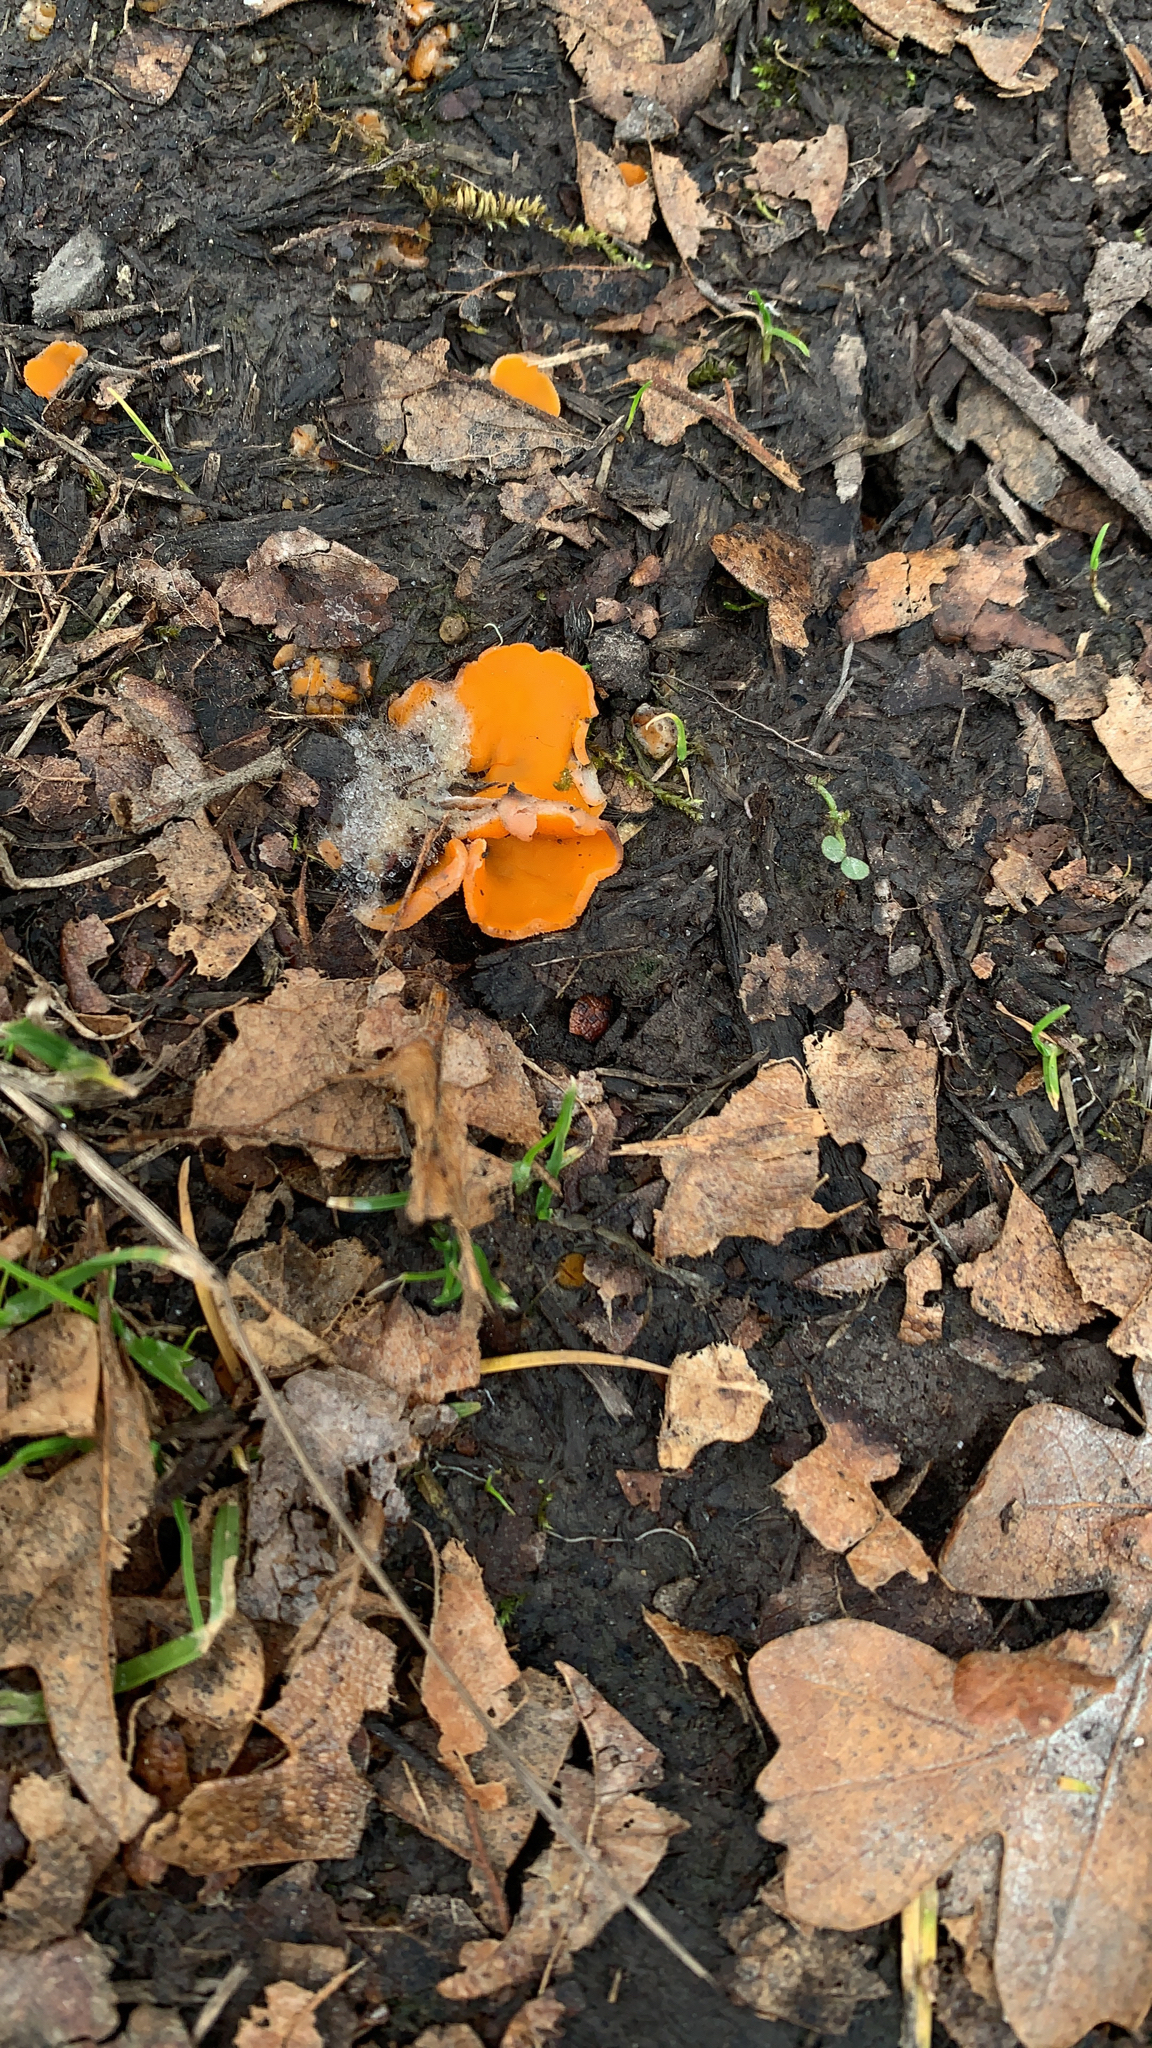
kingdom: Fungi
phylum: Ascomycota
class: Pezizomycetes
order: Pezizales
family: Pyronemataceae
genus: Aleuria
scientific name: Aleuria aurantia
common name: Orange peel fungus
